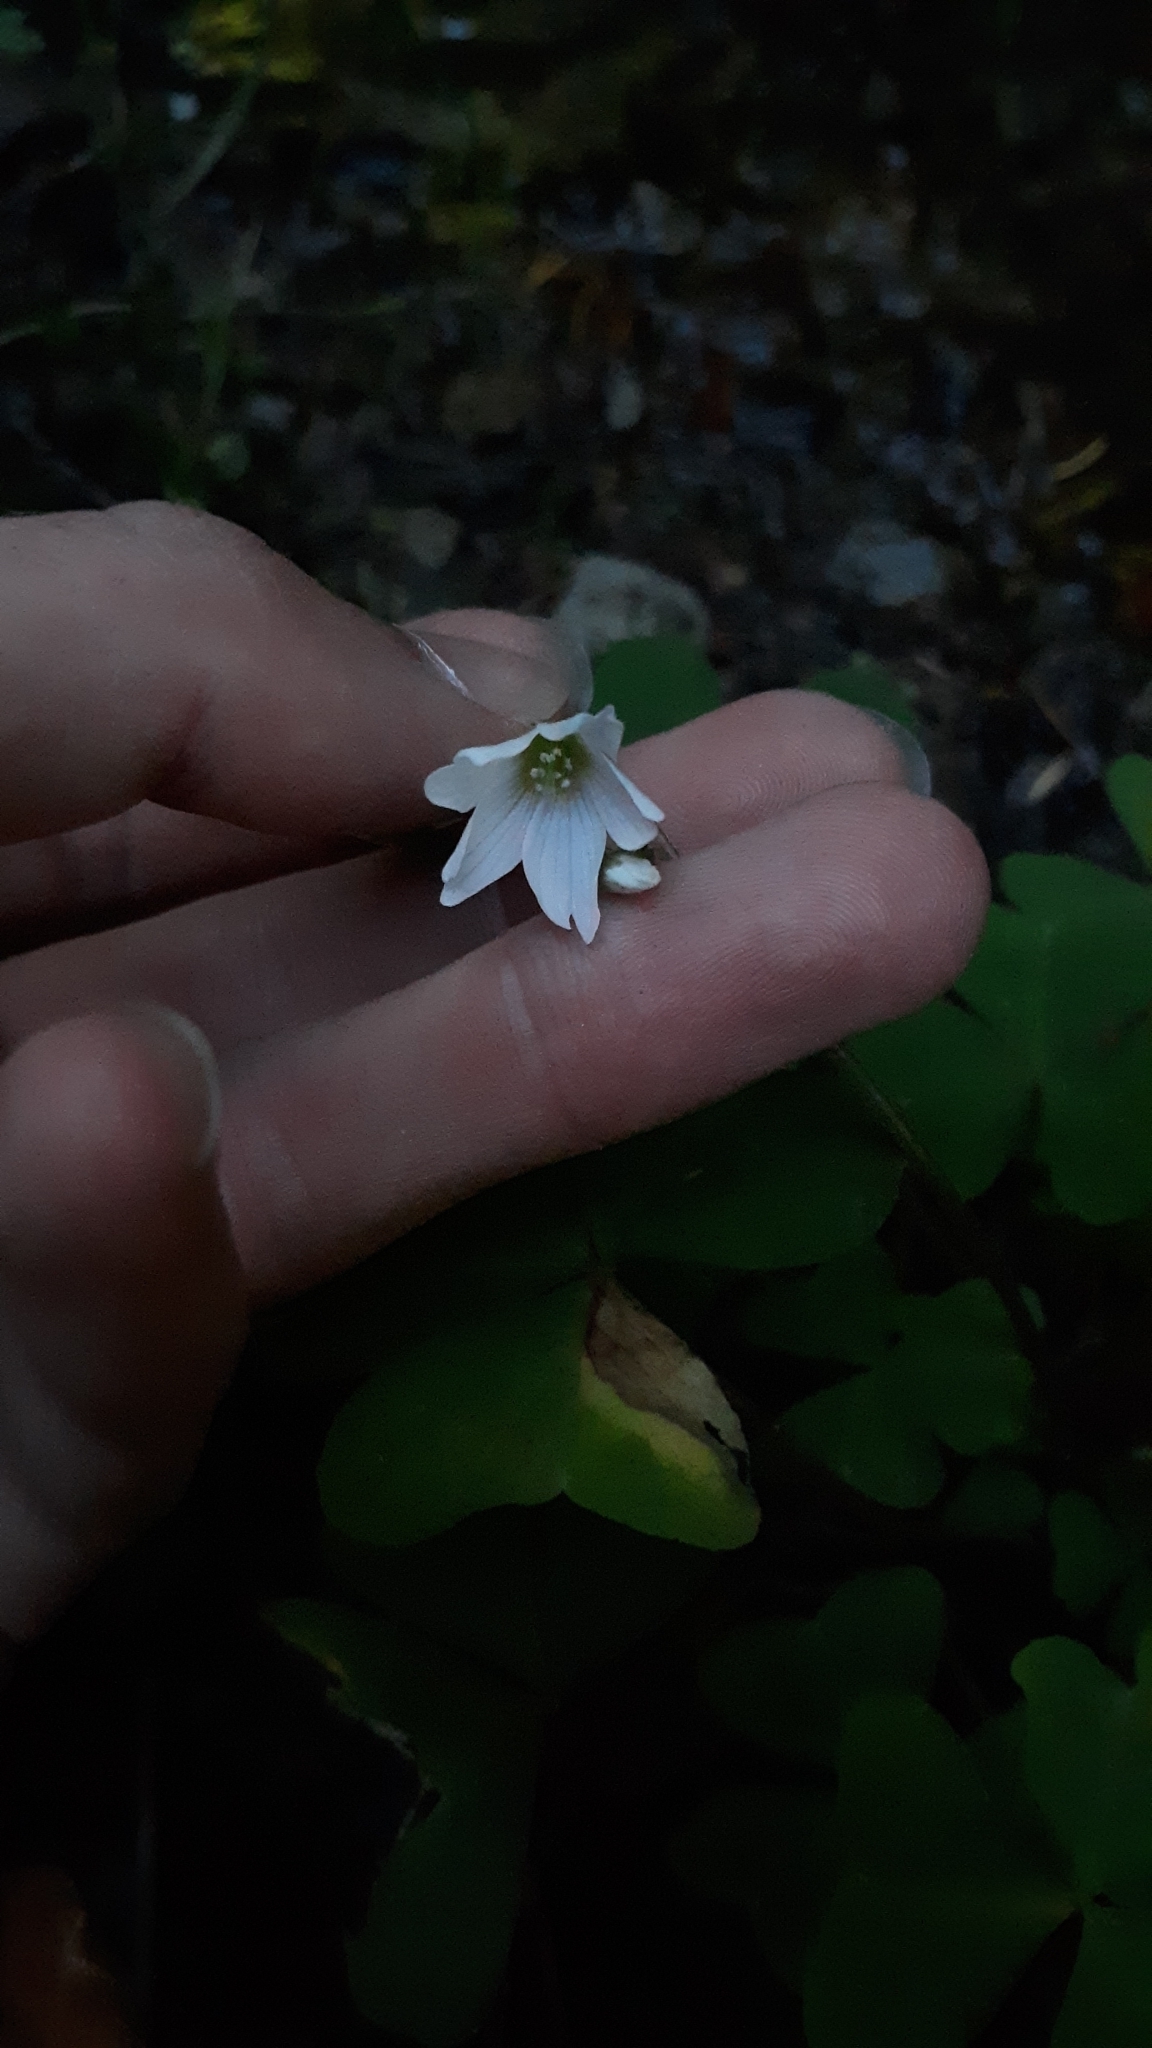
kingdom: Plantae
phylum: Tracheophyta
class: Magnoliopsida
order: Oxalidales
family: Oxalidaceae
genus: Oxalis
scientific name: Oxalis trilliifolia
